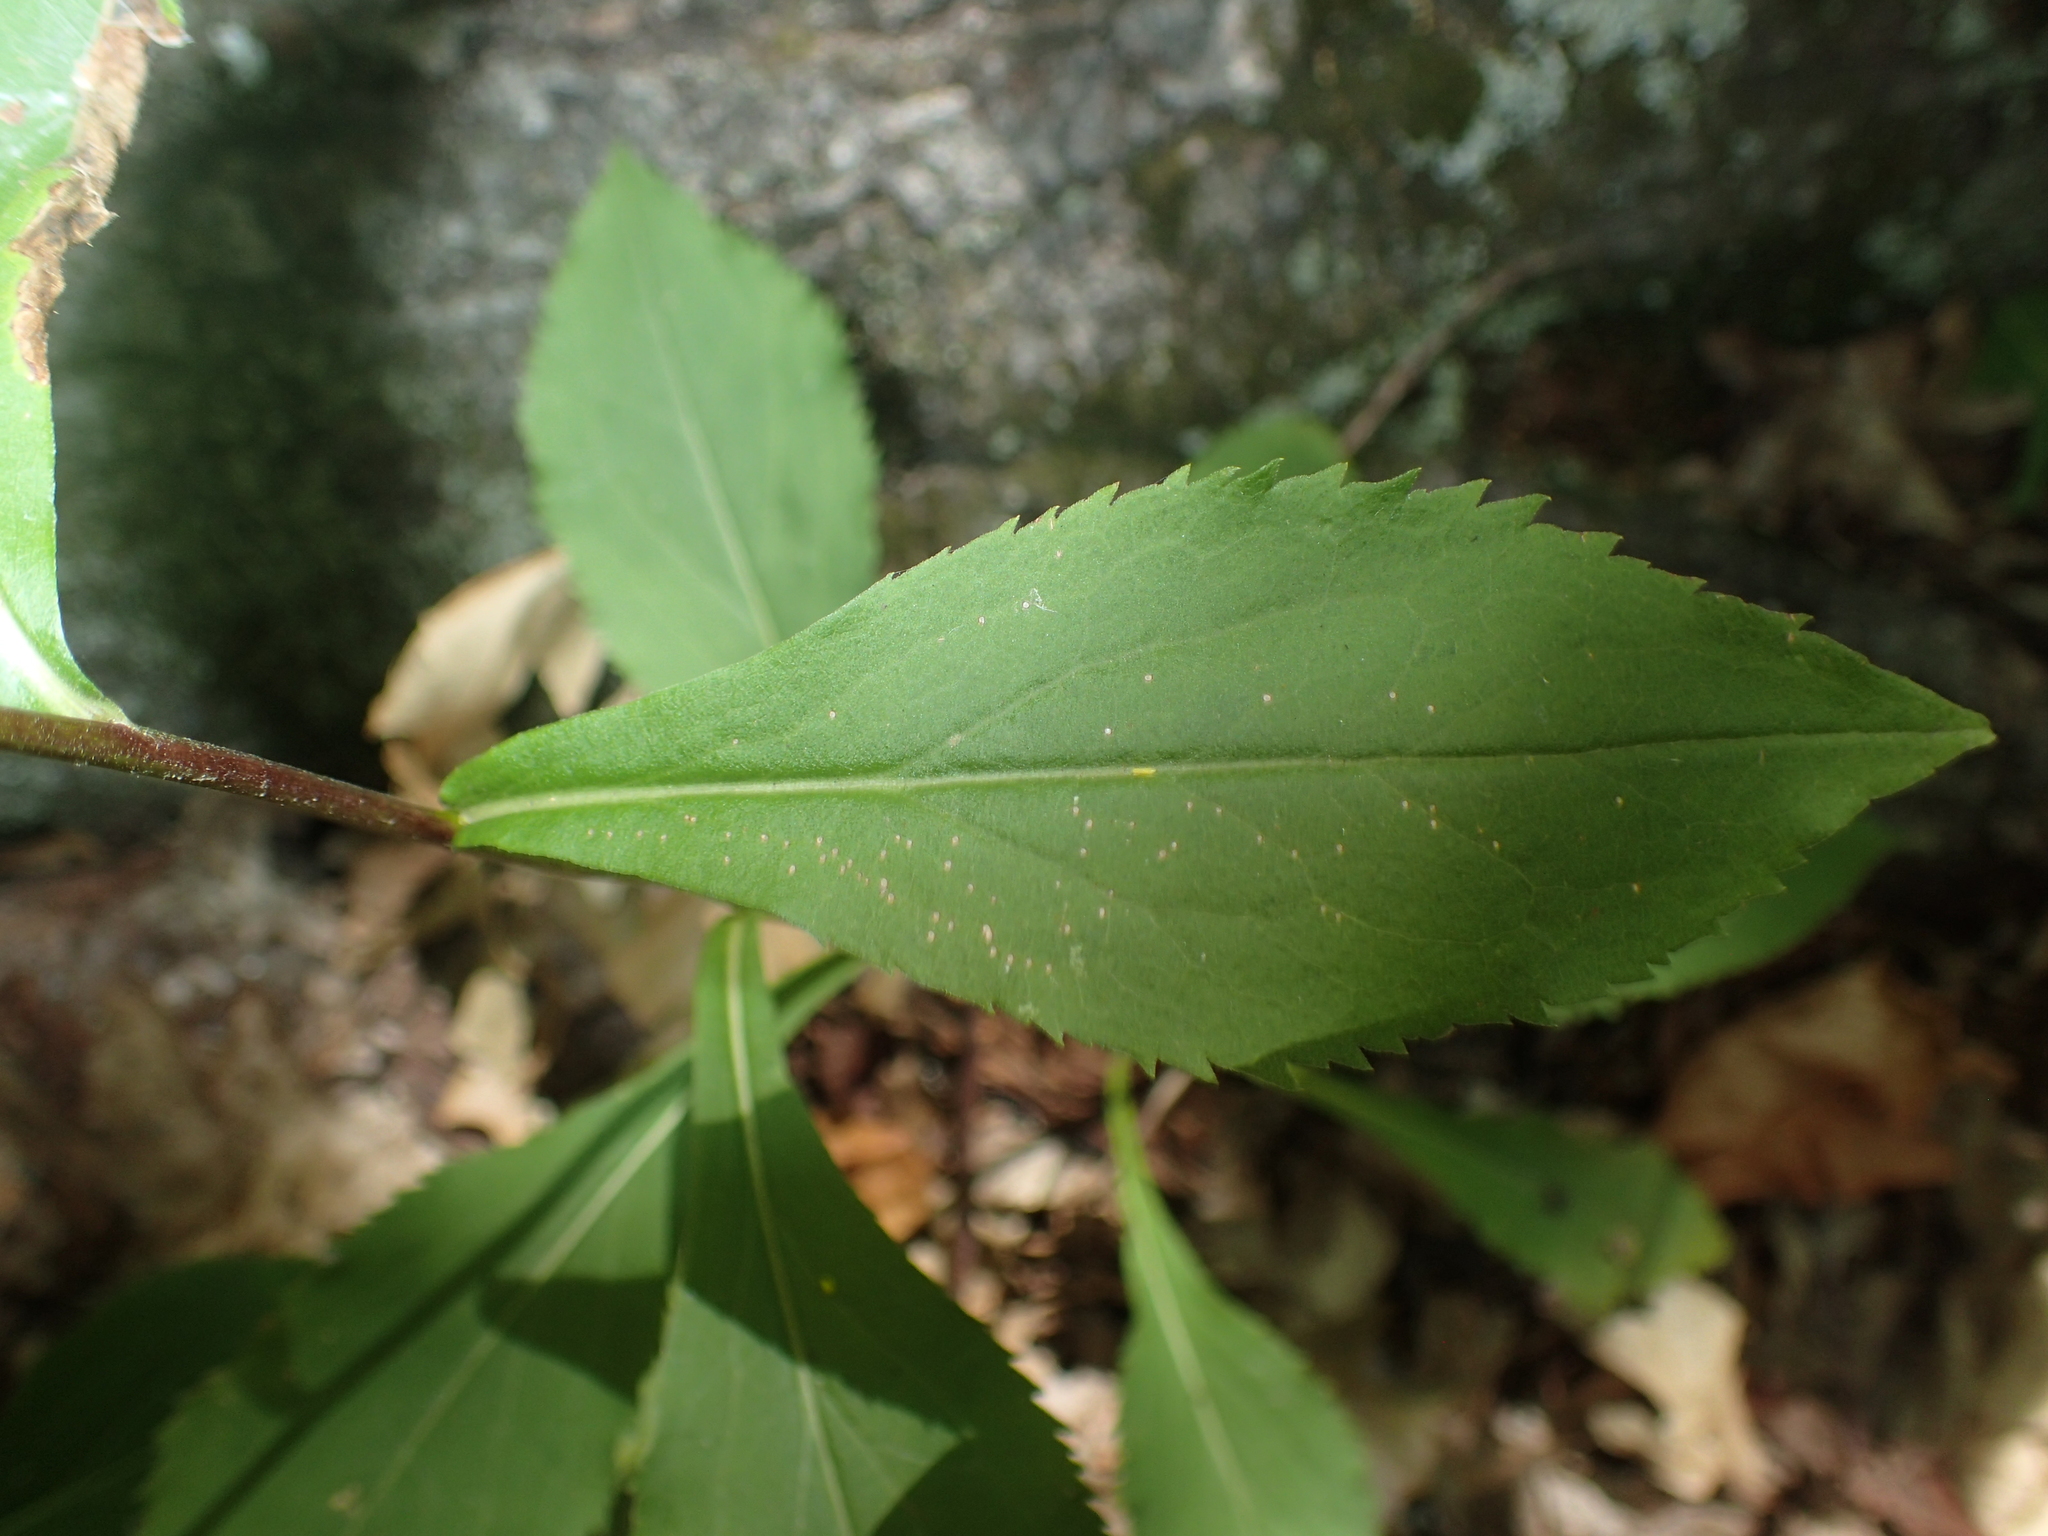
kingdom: Plantae
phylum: Tracheophyta
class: Magnoliopsida
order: Asterales
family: Asteraceae
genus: Solidago
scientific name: Solidago arguta
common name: Atlantic goldenrod
